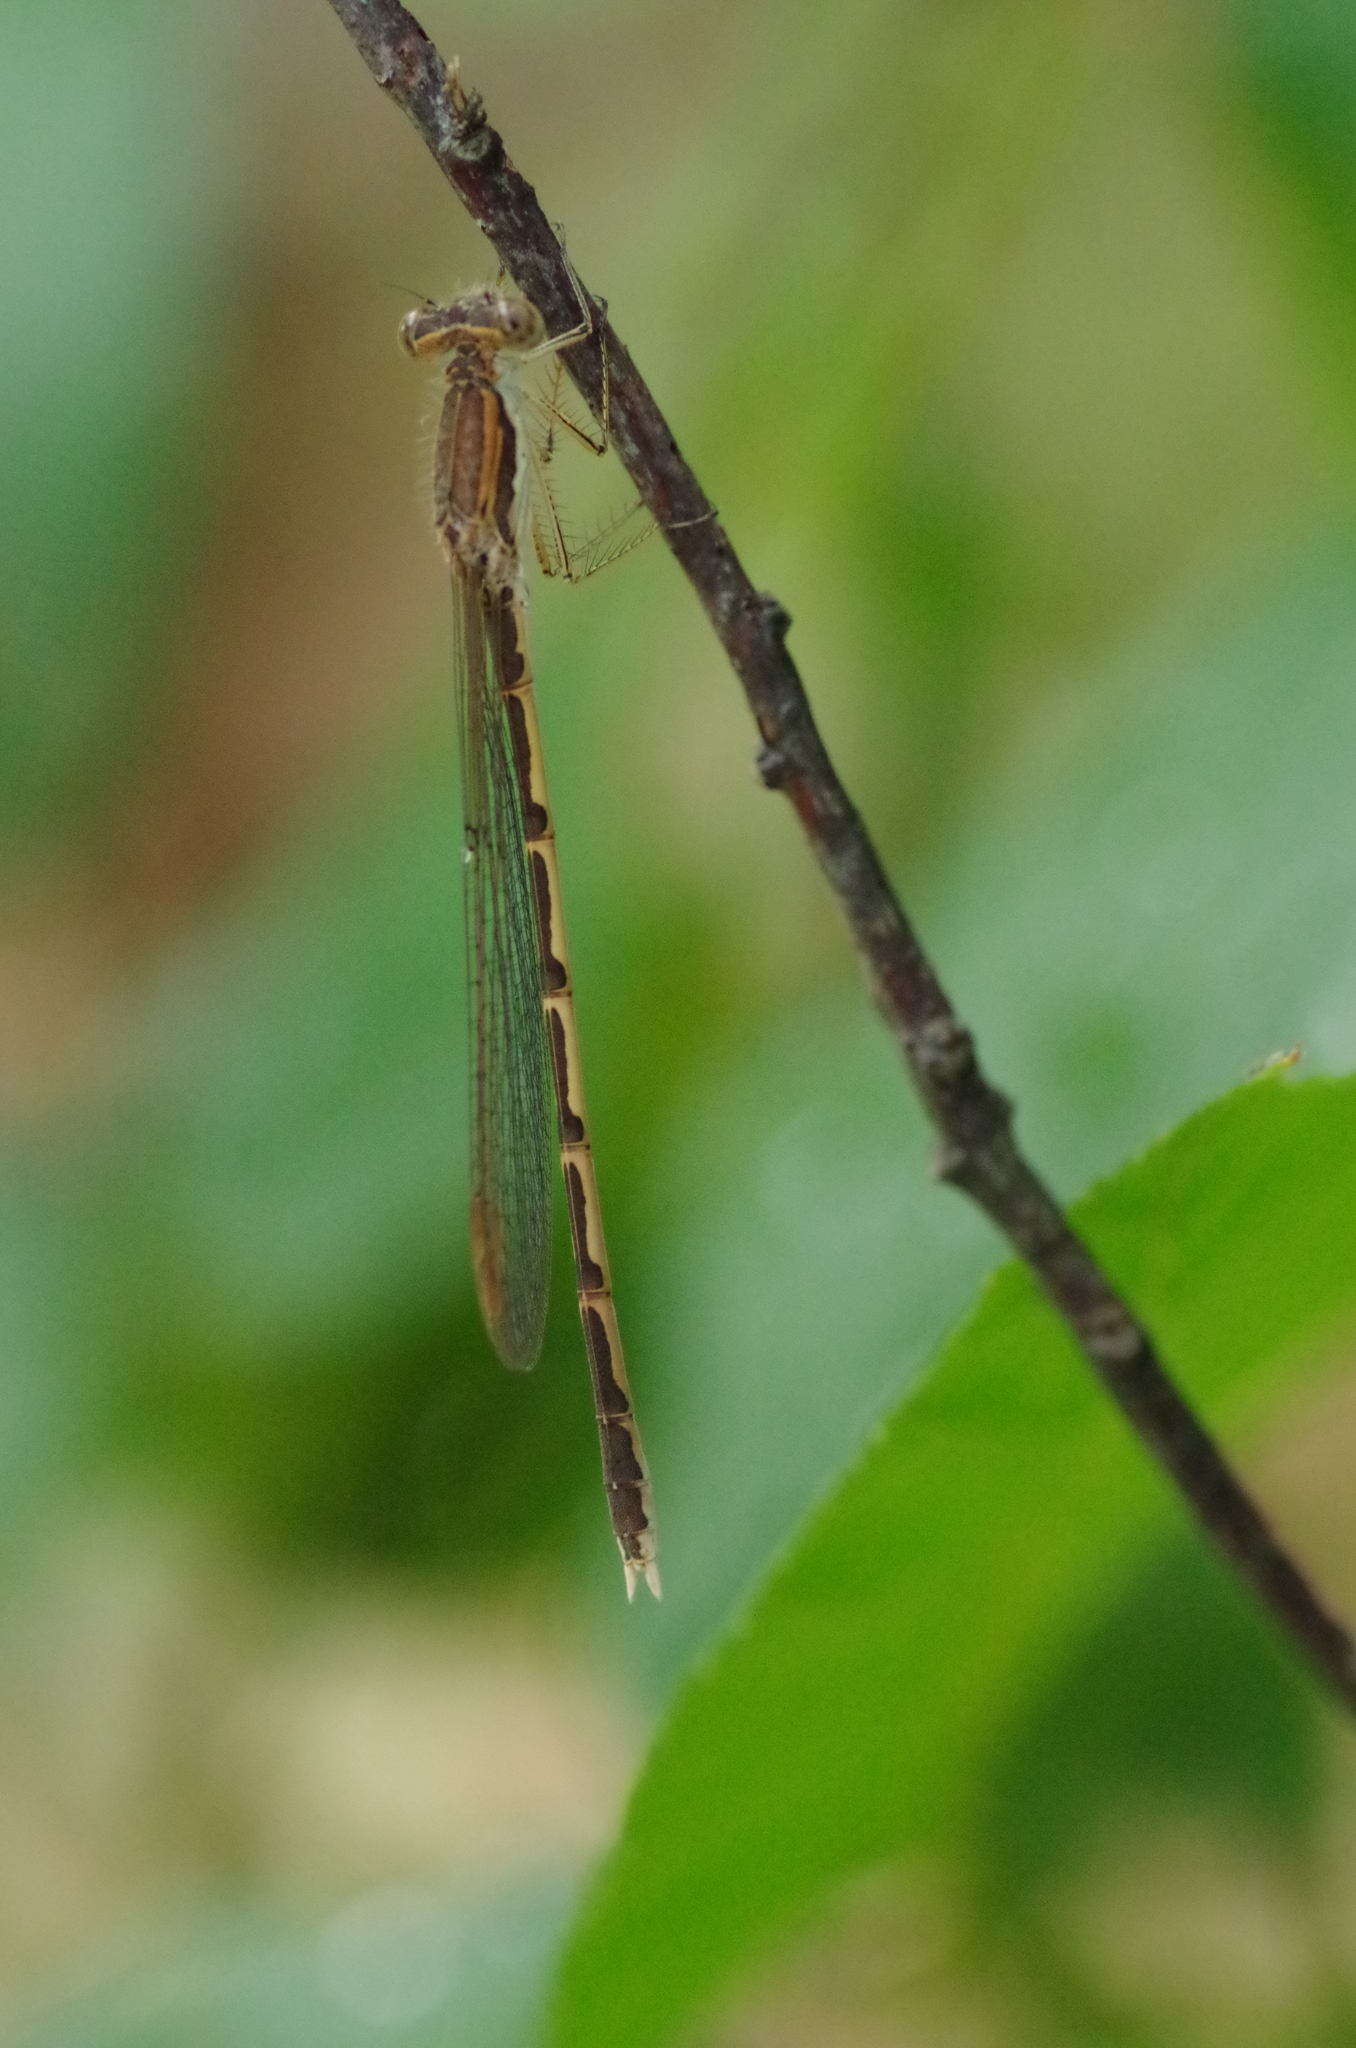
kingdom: Animalia
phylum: Arthropoda
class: Insecta
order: Odonata
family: Lestidae
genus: Sympecma
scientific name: Sympecma fusca
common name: Common winter damsel
